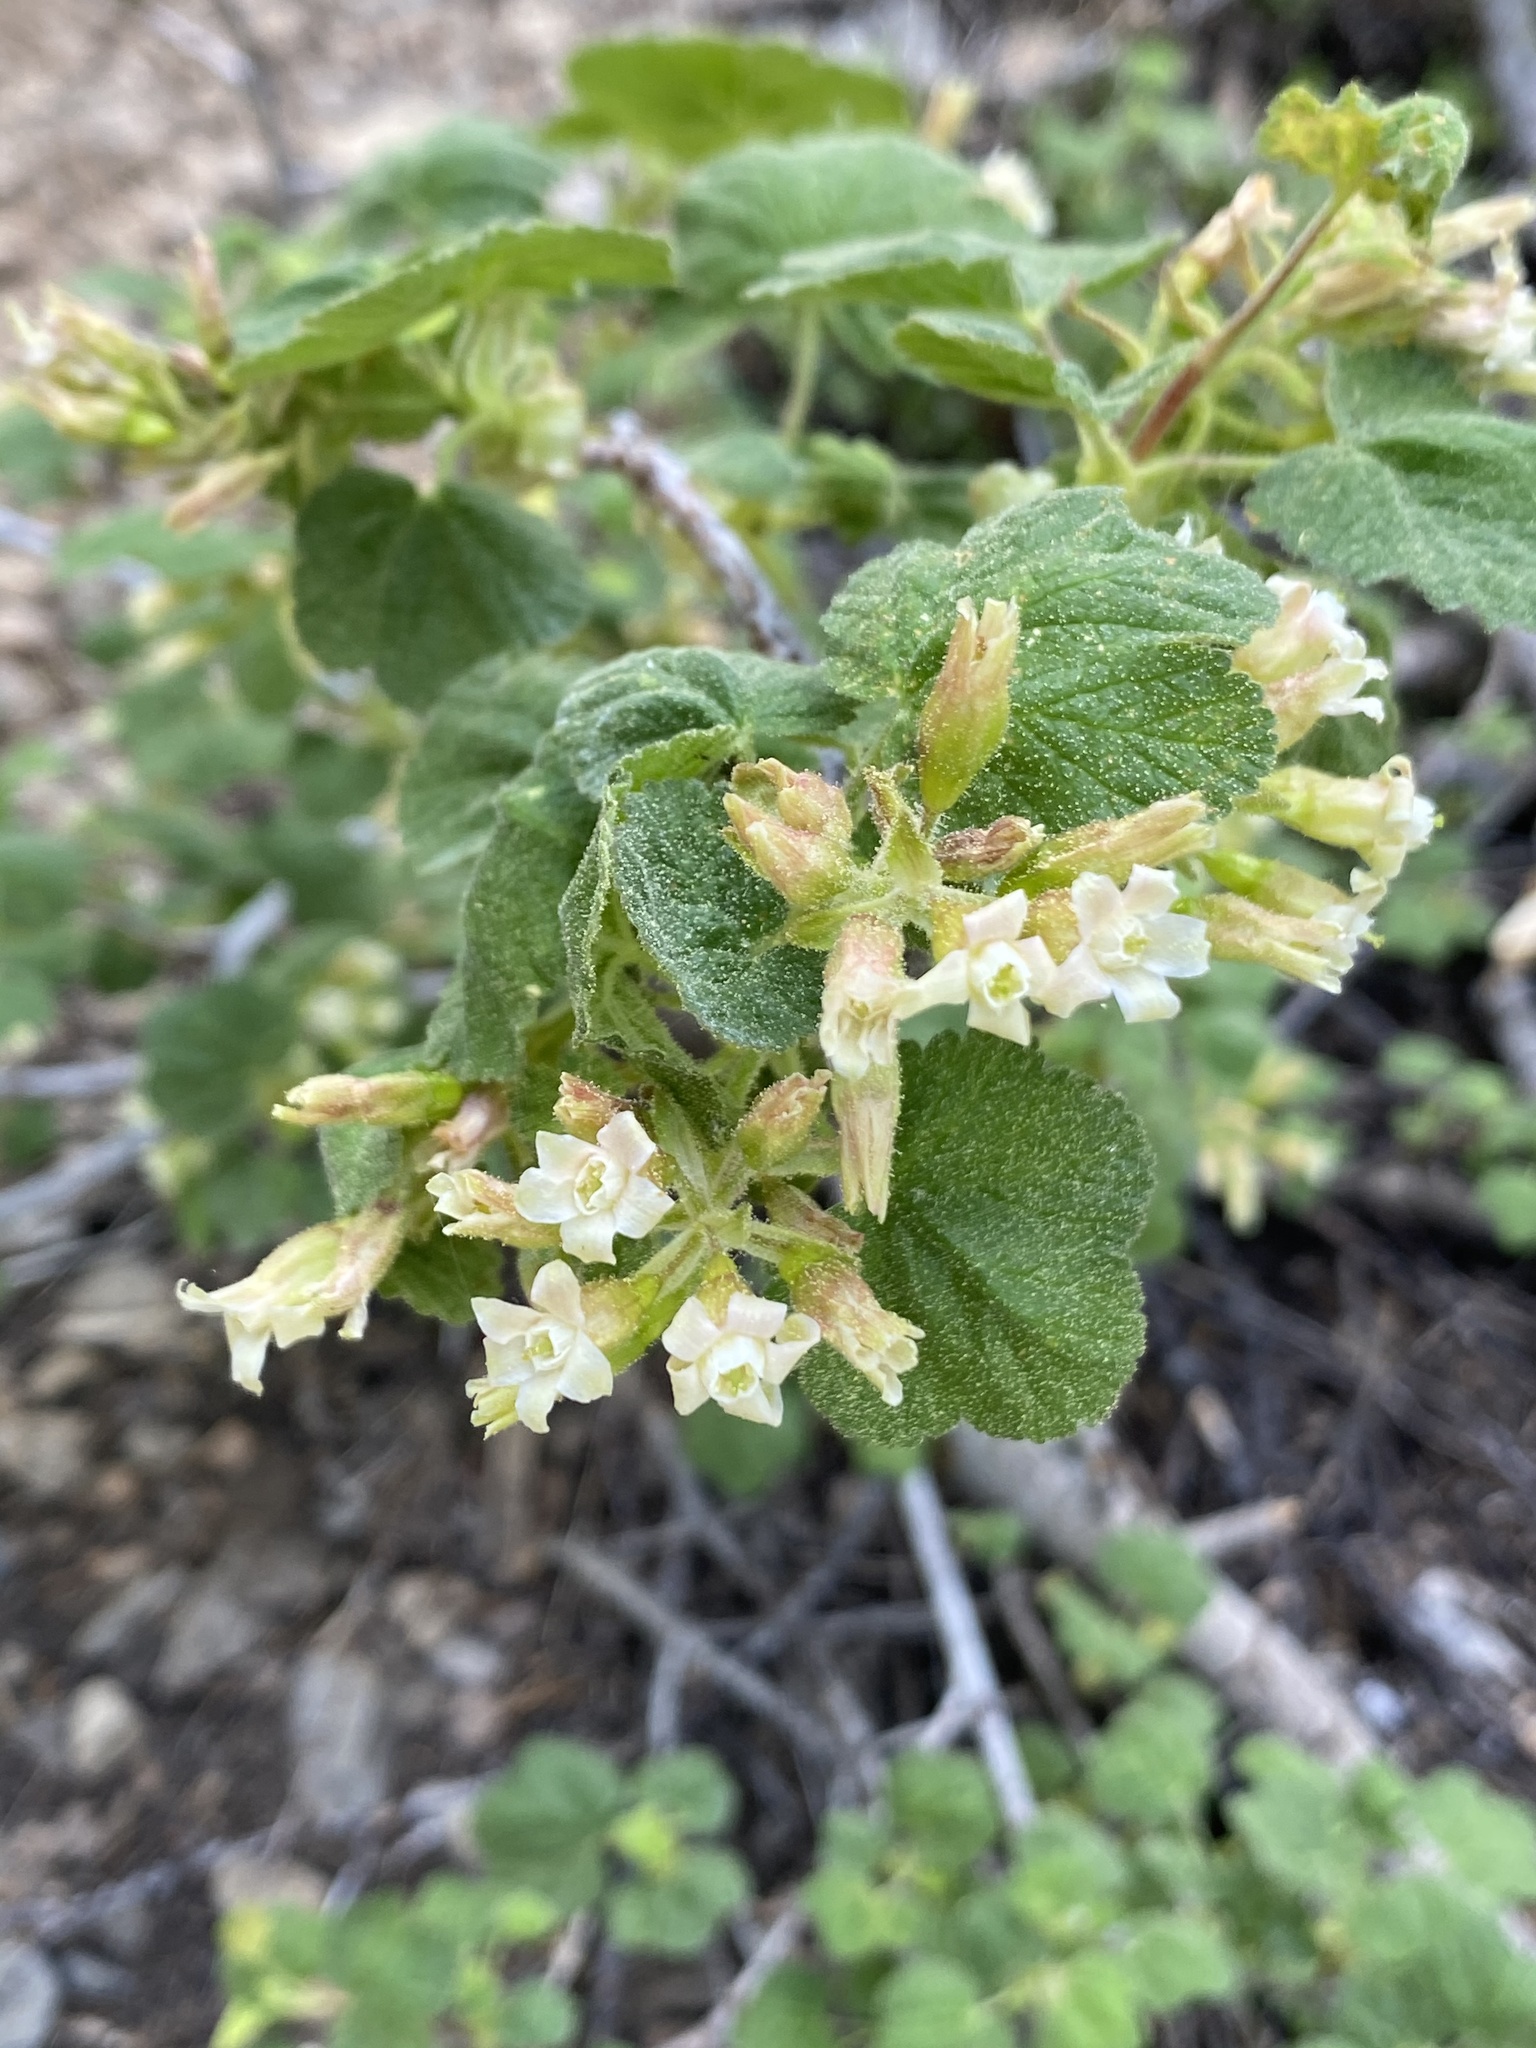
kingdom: Plantae
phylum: Tracheophyta
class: Magnoliopsida
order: Saxifragales
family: Grossulariaceae
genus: Ribes
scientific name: Ribes viscosissimum
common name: Sticky currant
